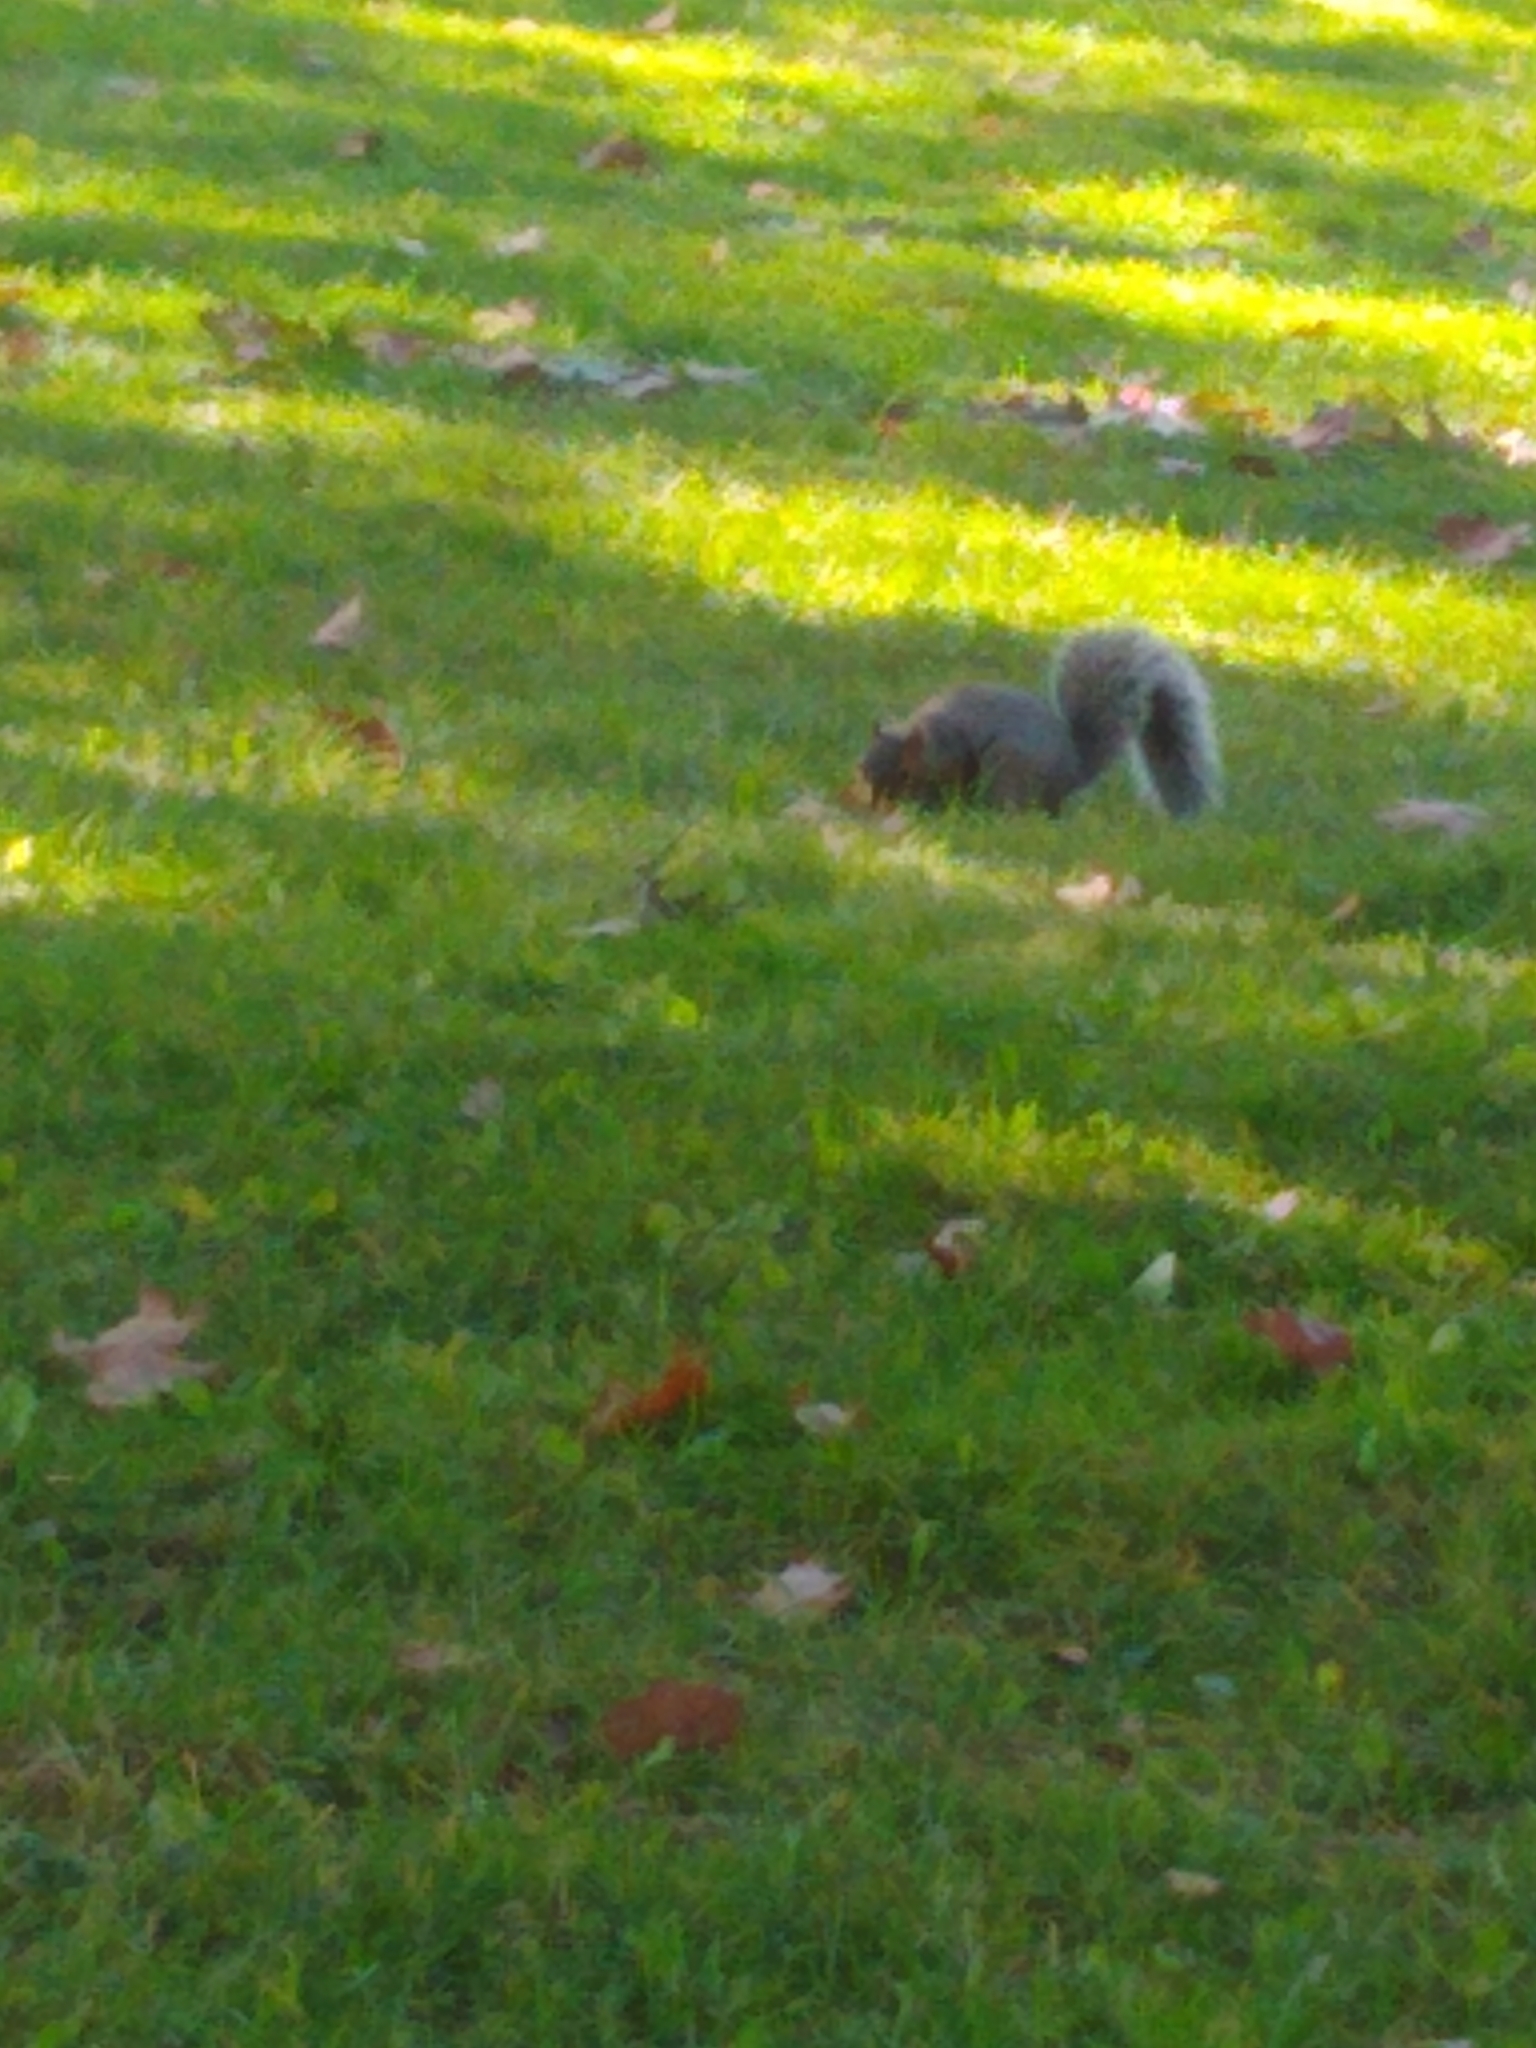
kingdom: Animalia
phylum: Chordata
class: Mammalia
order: Rodentia
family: Sciuridae
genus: Sciurus
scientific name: Sciurus carolinensis
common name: Eastern gray squirrel
